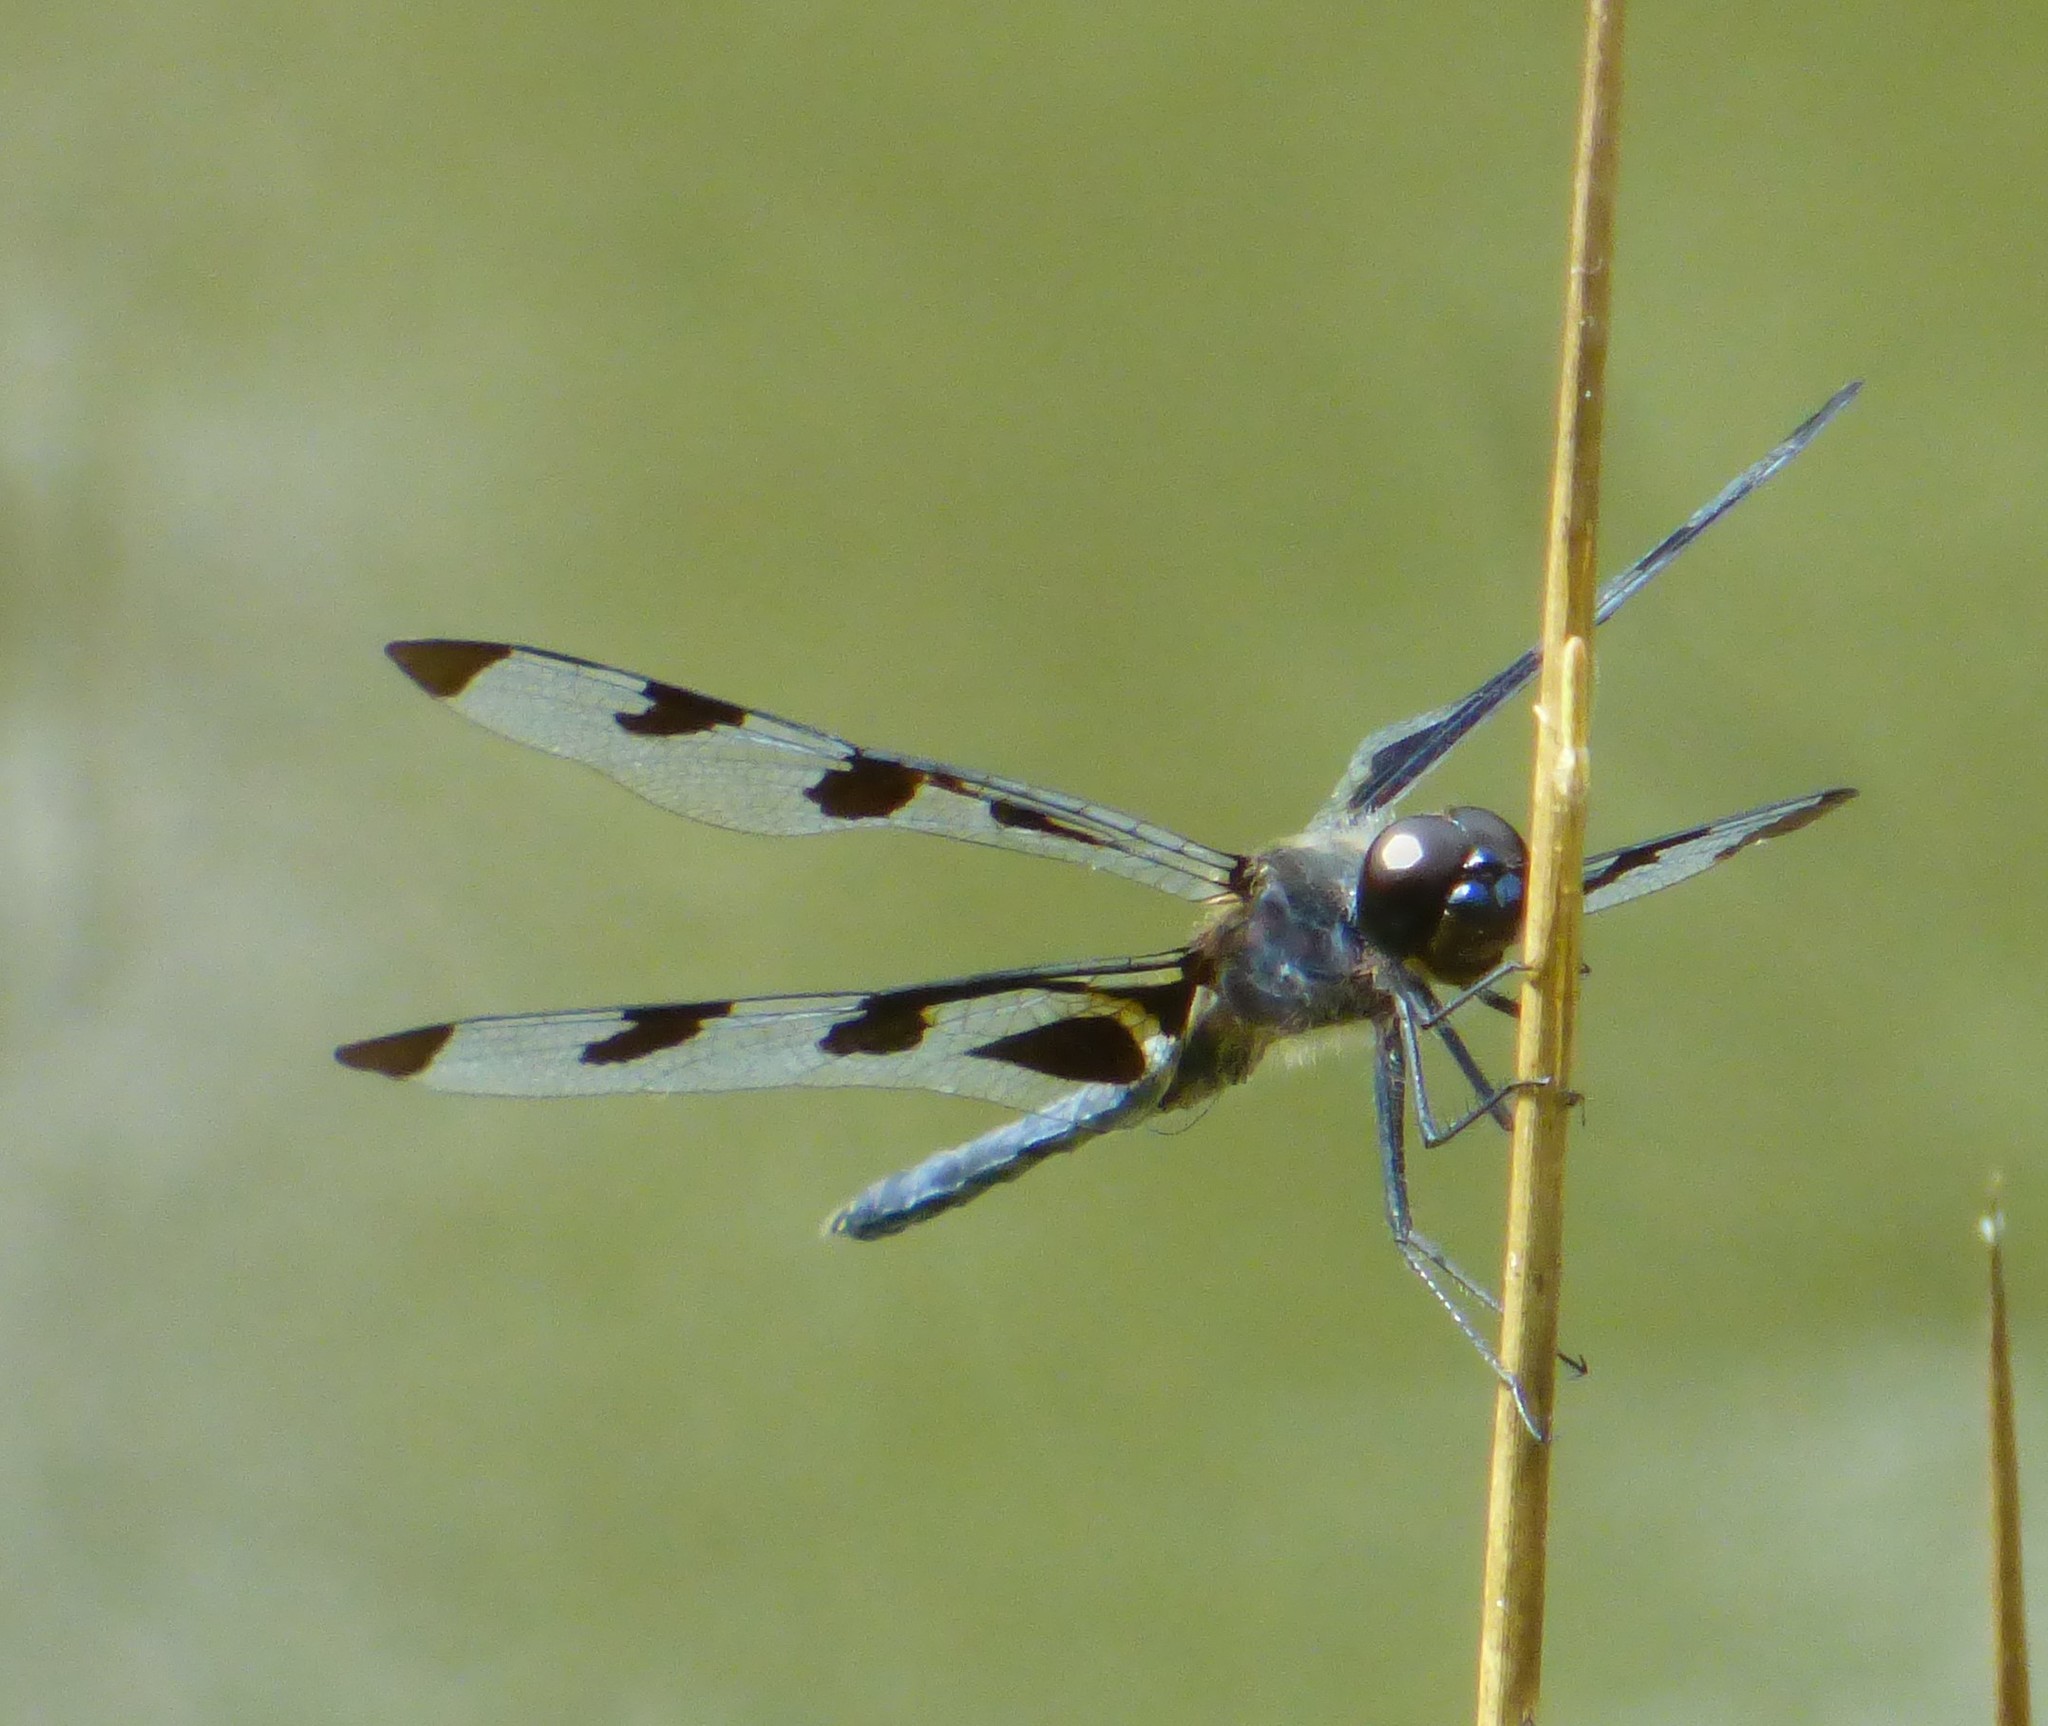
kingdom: Animalia
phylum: Arthropoda
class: Insecta
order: Odonata
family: Libellulidae
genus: Celithemis
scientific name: Celithemis fasciata
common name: Banded pennant
